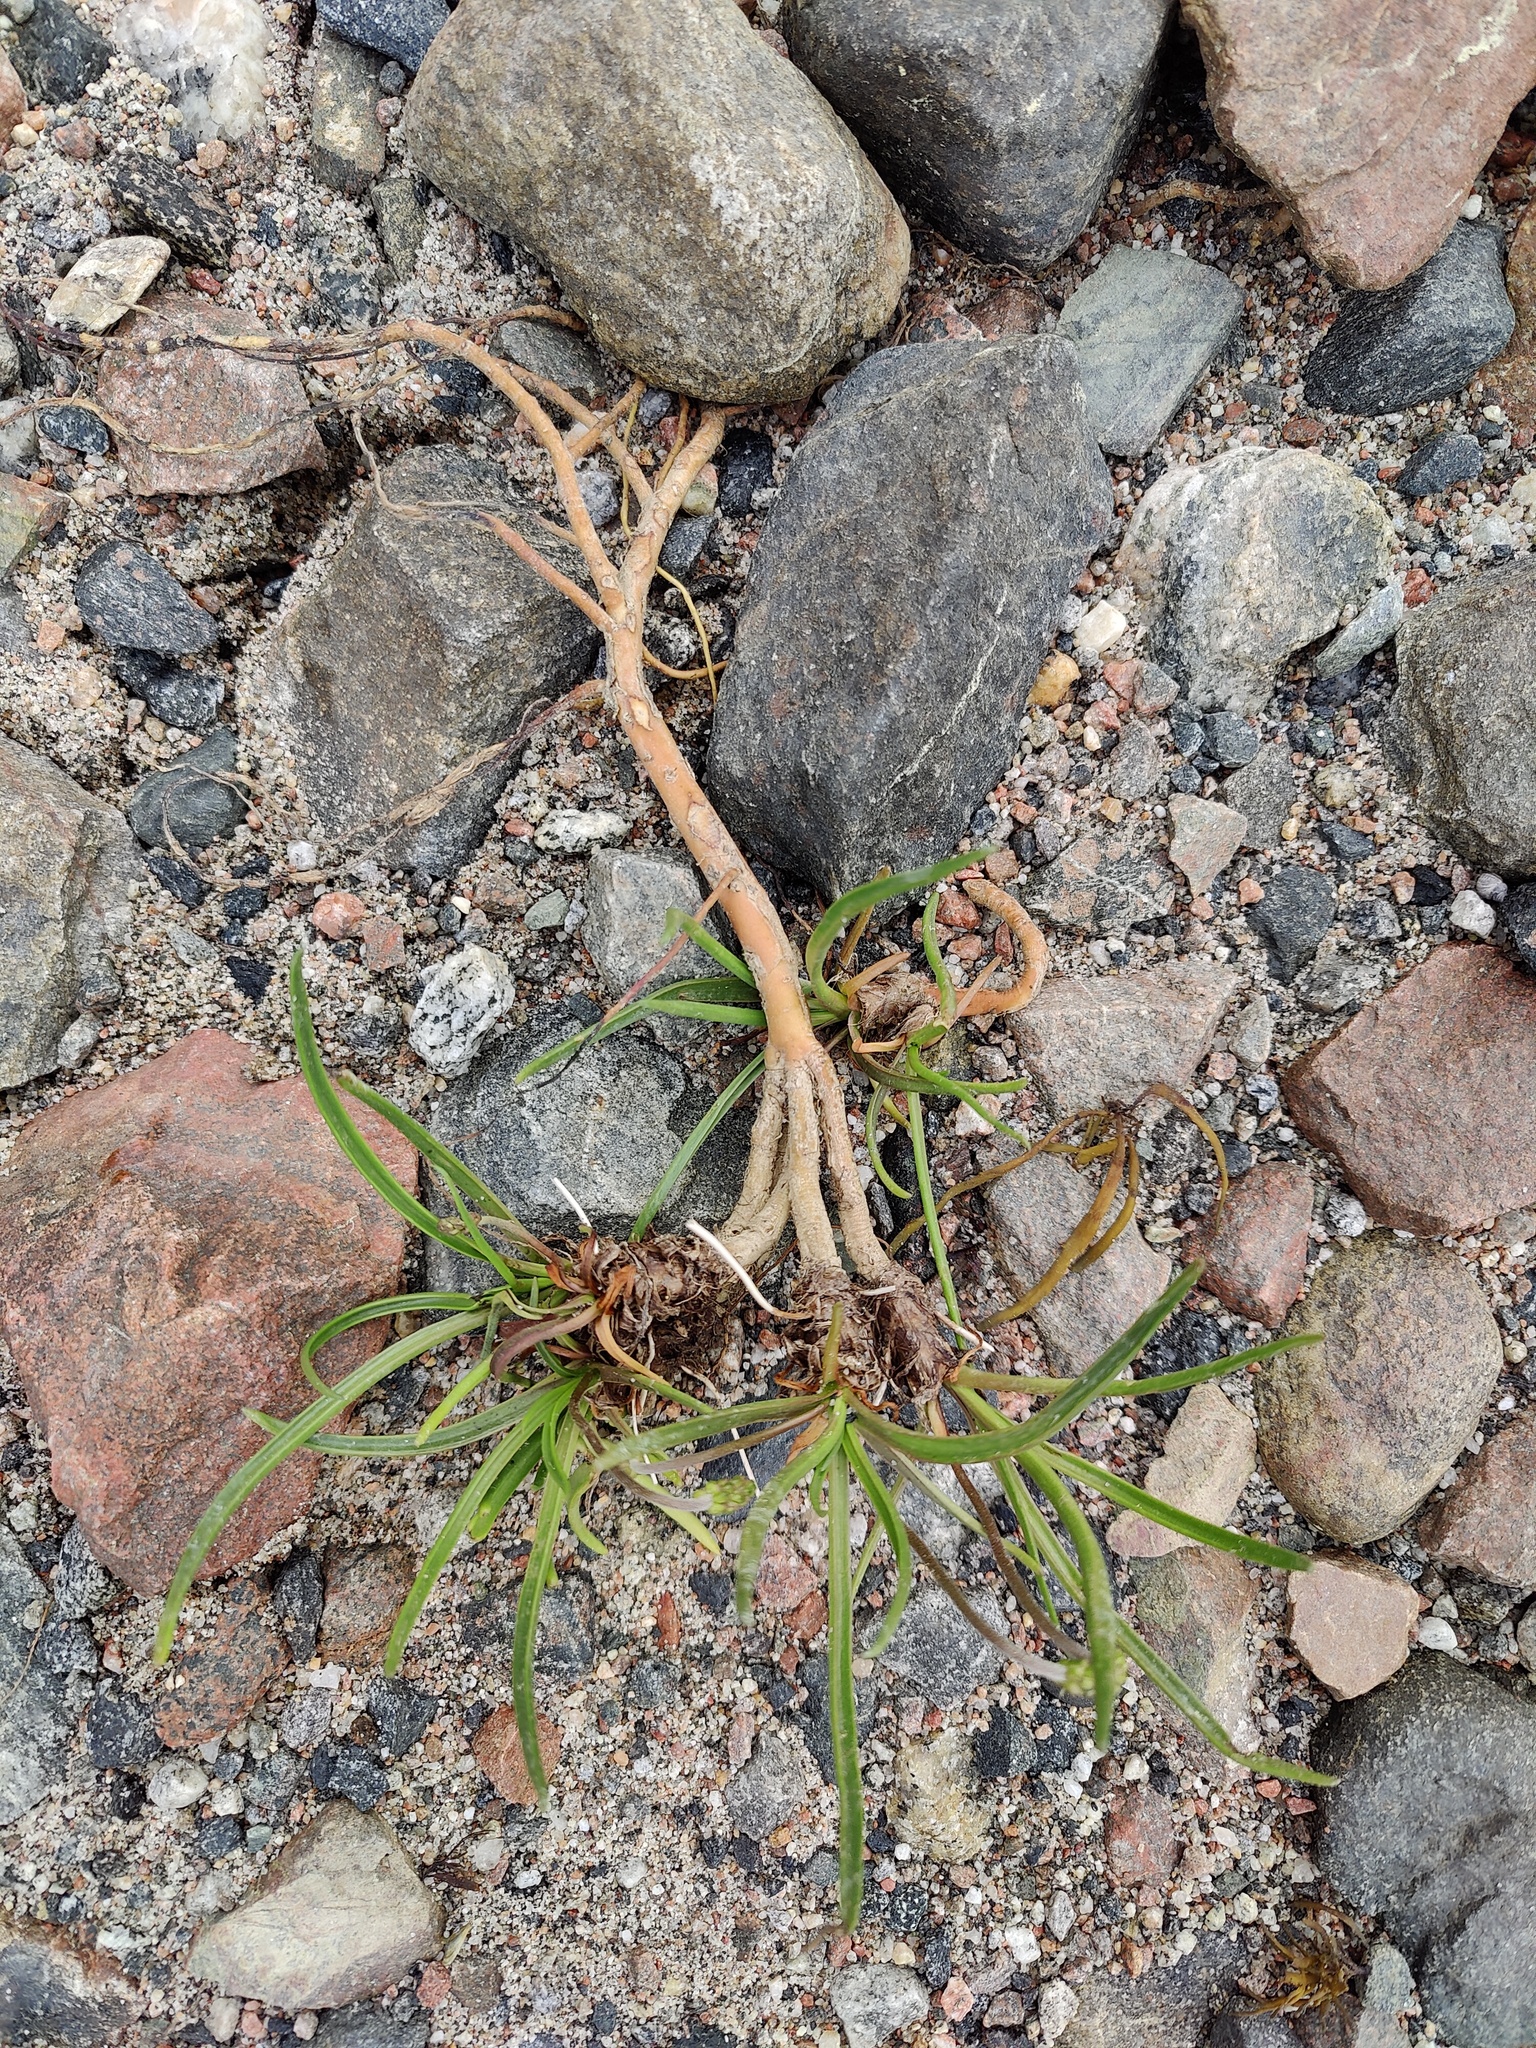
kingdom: Plantae
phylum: Tracheophyta
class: Magnoliopsida
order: Lamiales
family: Plantaginaceae
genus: Plantago
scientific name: Plantago maritima
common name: Sea plantain
